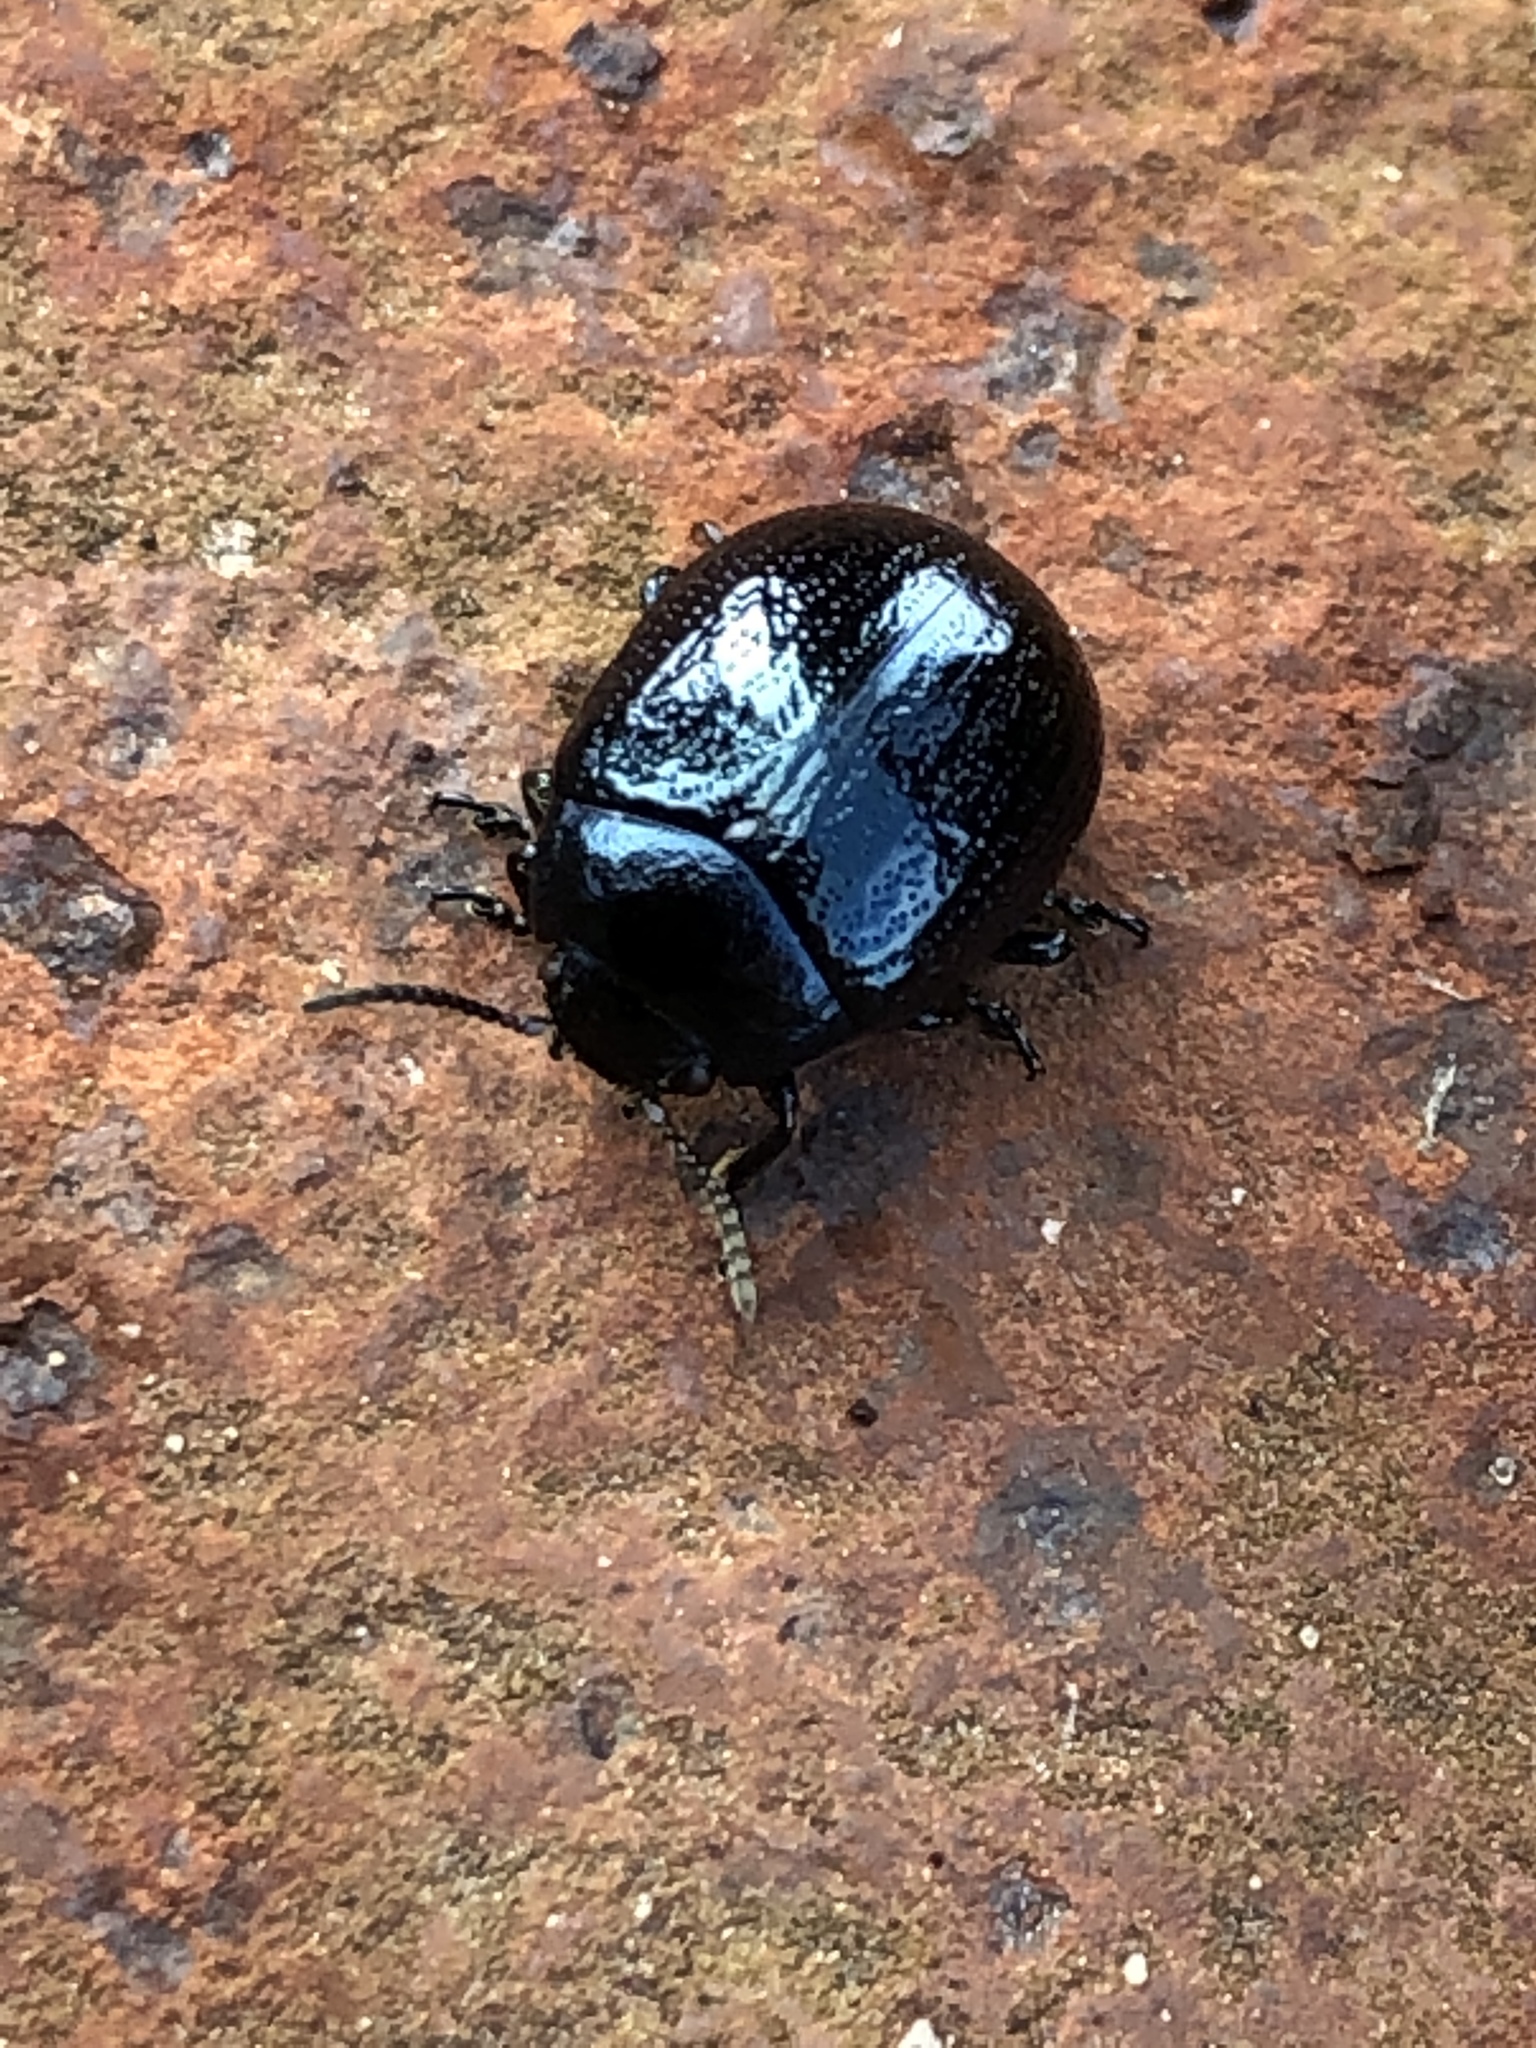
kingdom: Animalia
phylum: Arthropoda
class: Insecta
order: Coleoptera
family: Chrysomelidae
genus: Chrysolina
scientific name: Chrysolina haemoptera
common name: Plantain leaf beetle
